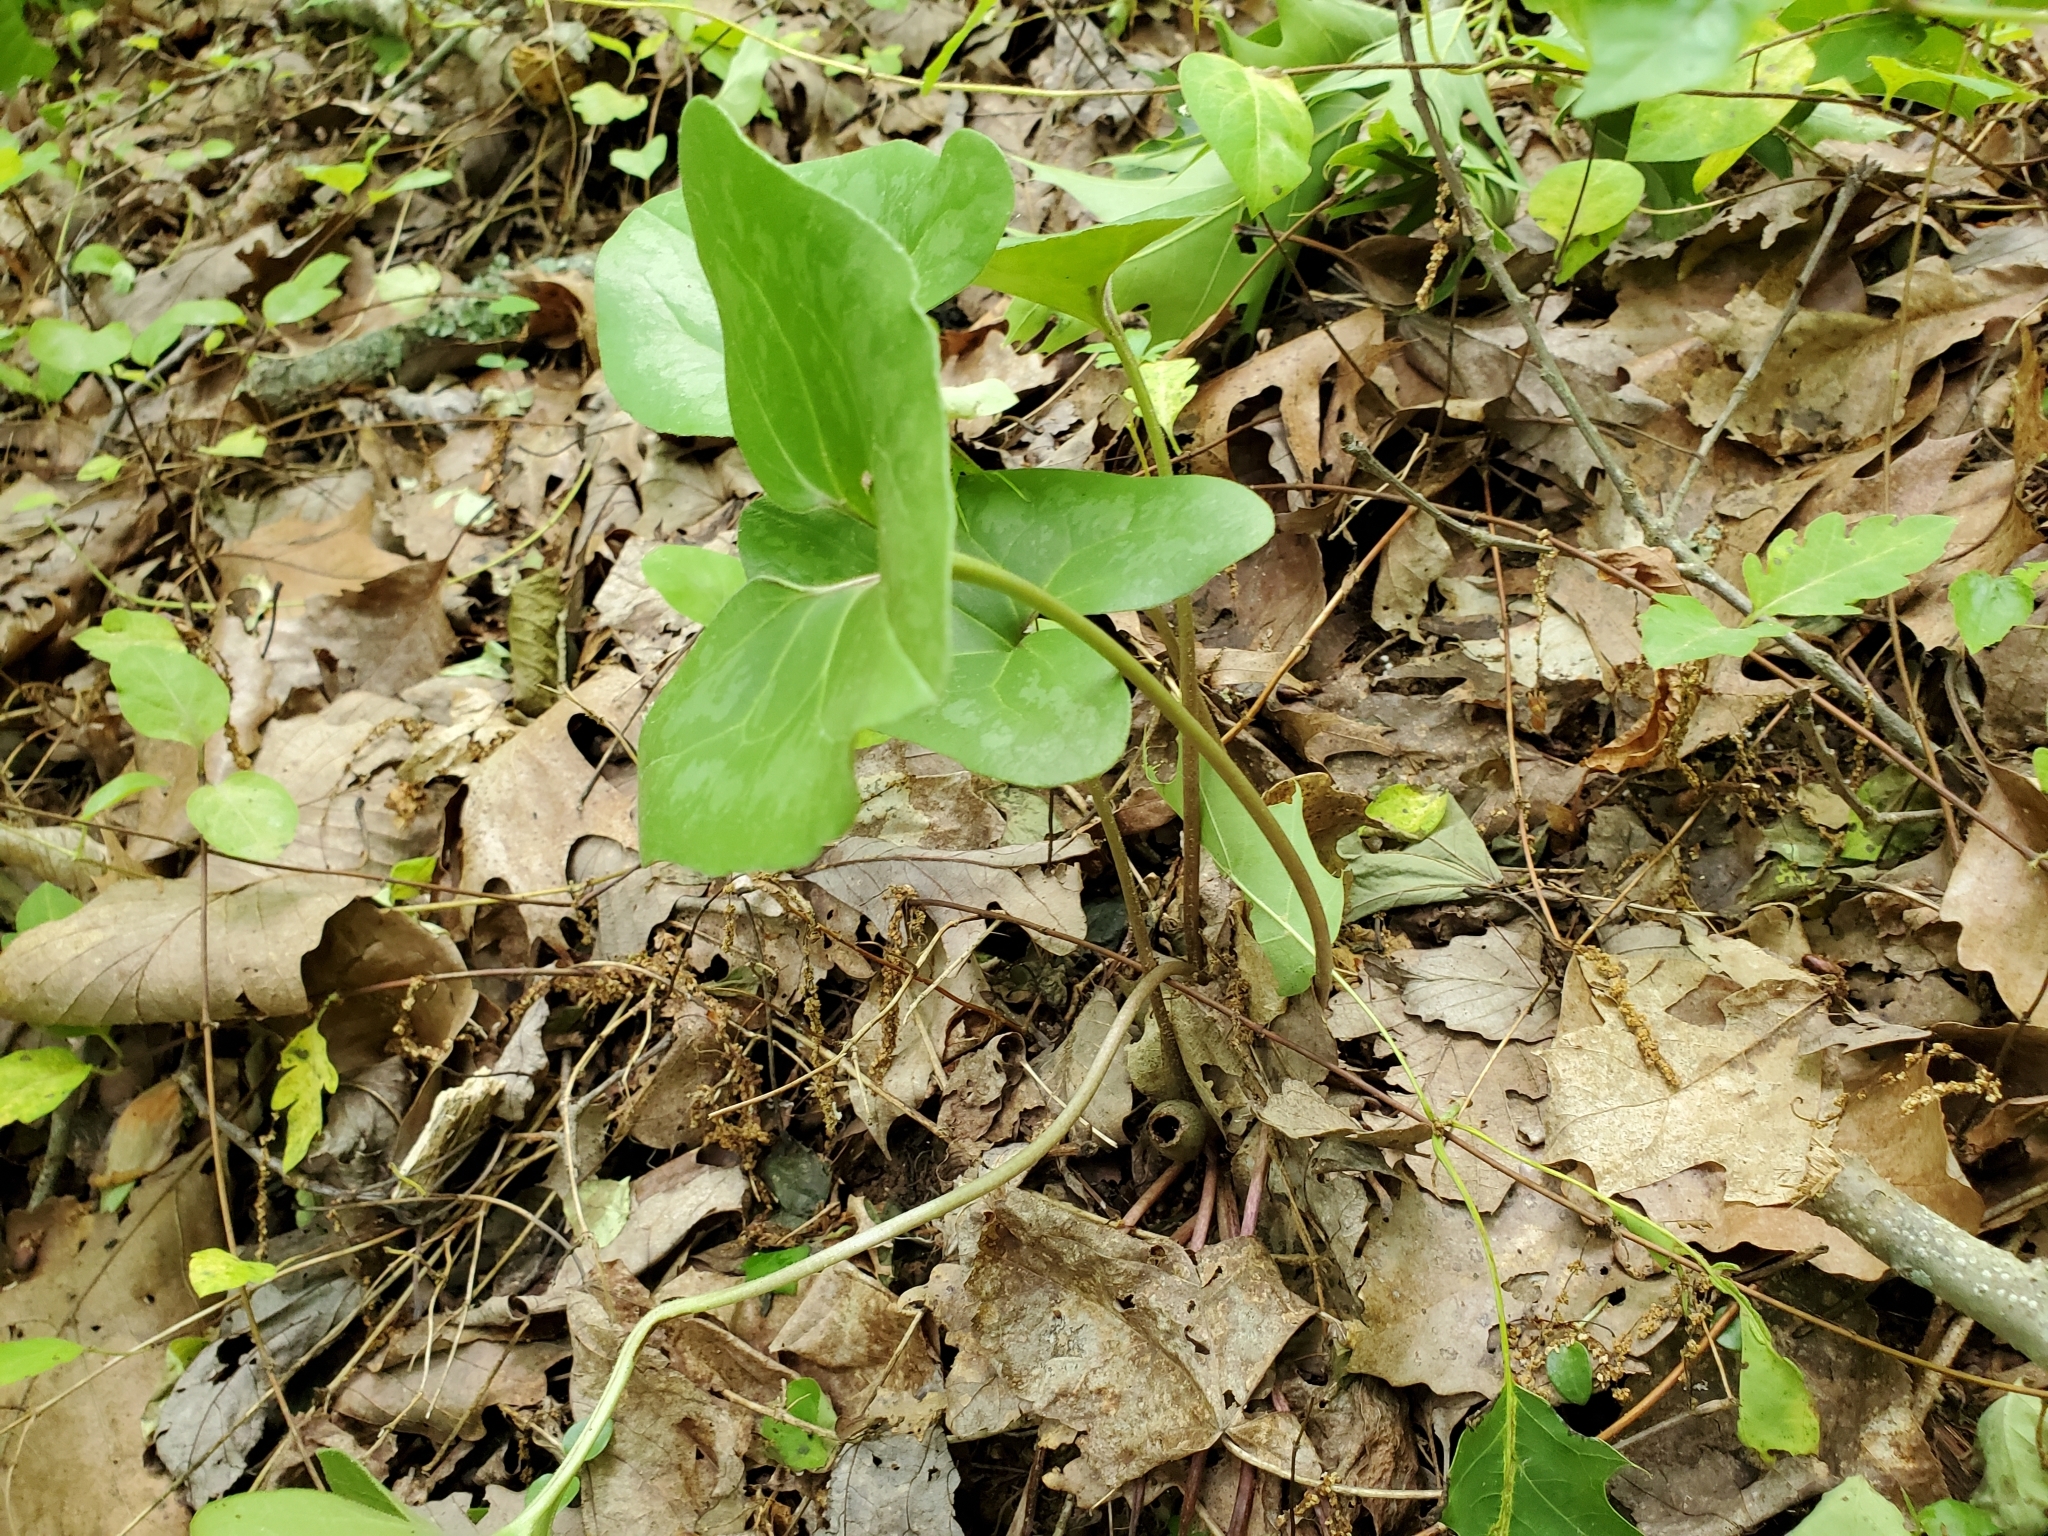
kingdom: Plantae
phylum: Tracheophyta
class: Magnoliopsida
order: Piperales
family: Aristolochiaceae
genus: Hexastylis
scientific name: Hexastylis arifolia
